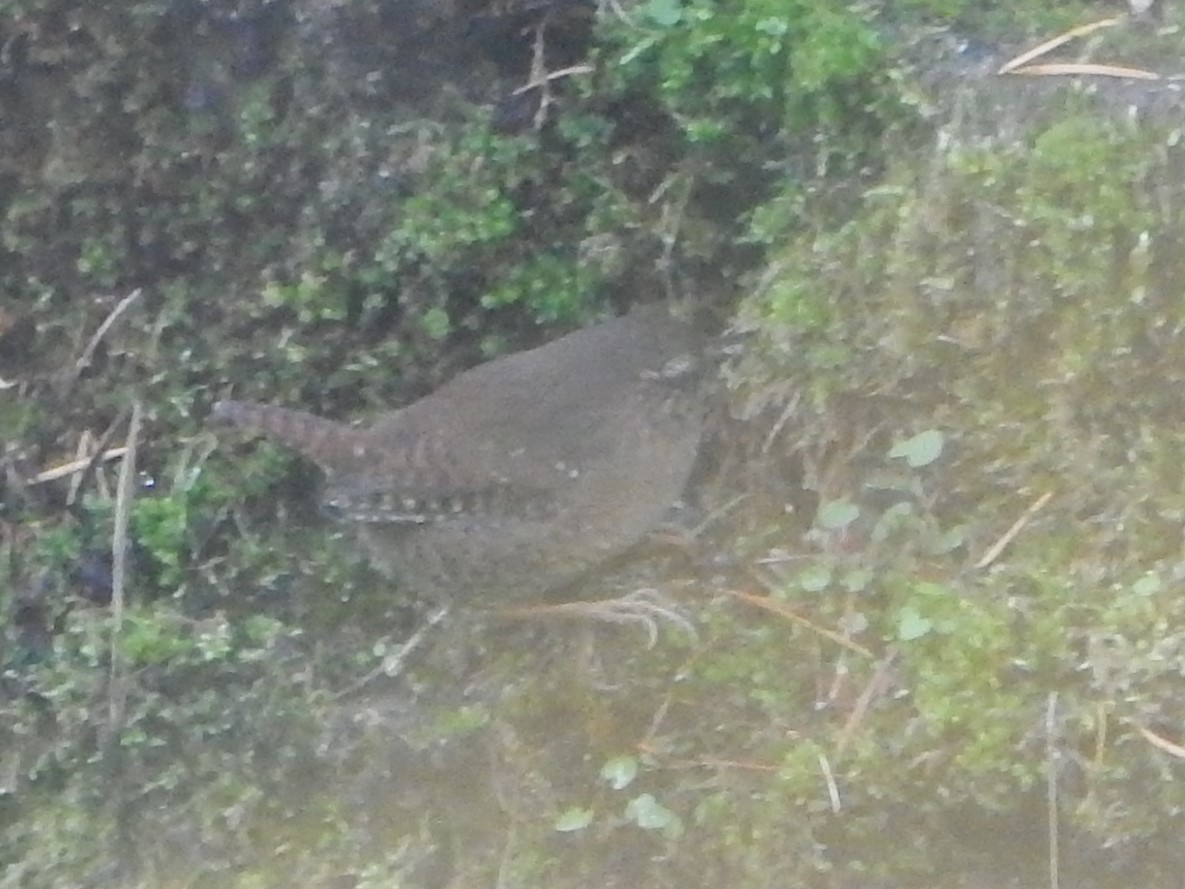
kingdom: Animalia
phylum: Chordata
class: Aves
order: Passeriformes
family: Troglodytidae
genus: Troglodytes
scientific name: Troglodytes pacificus
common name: Pacific wren
